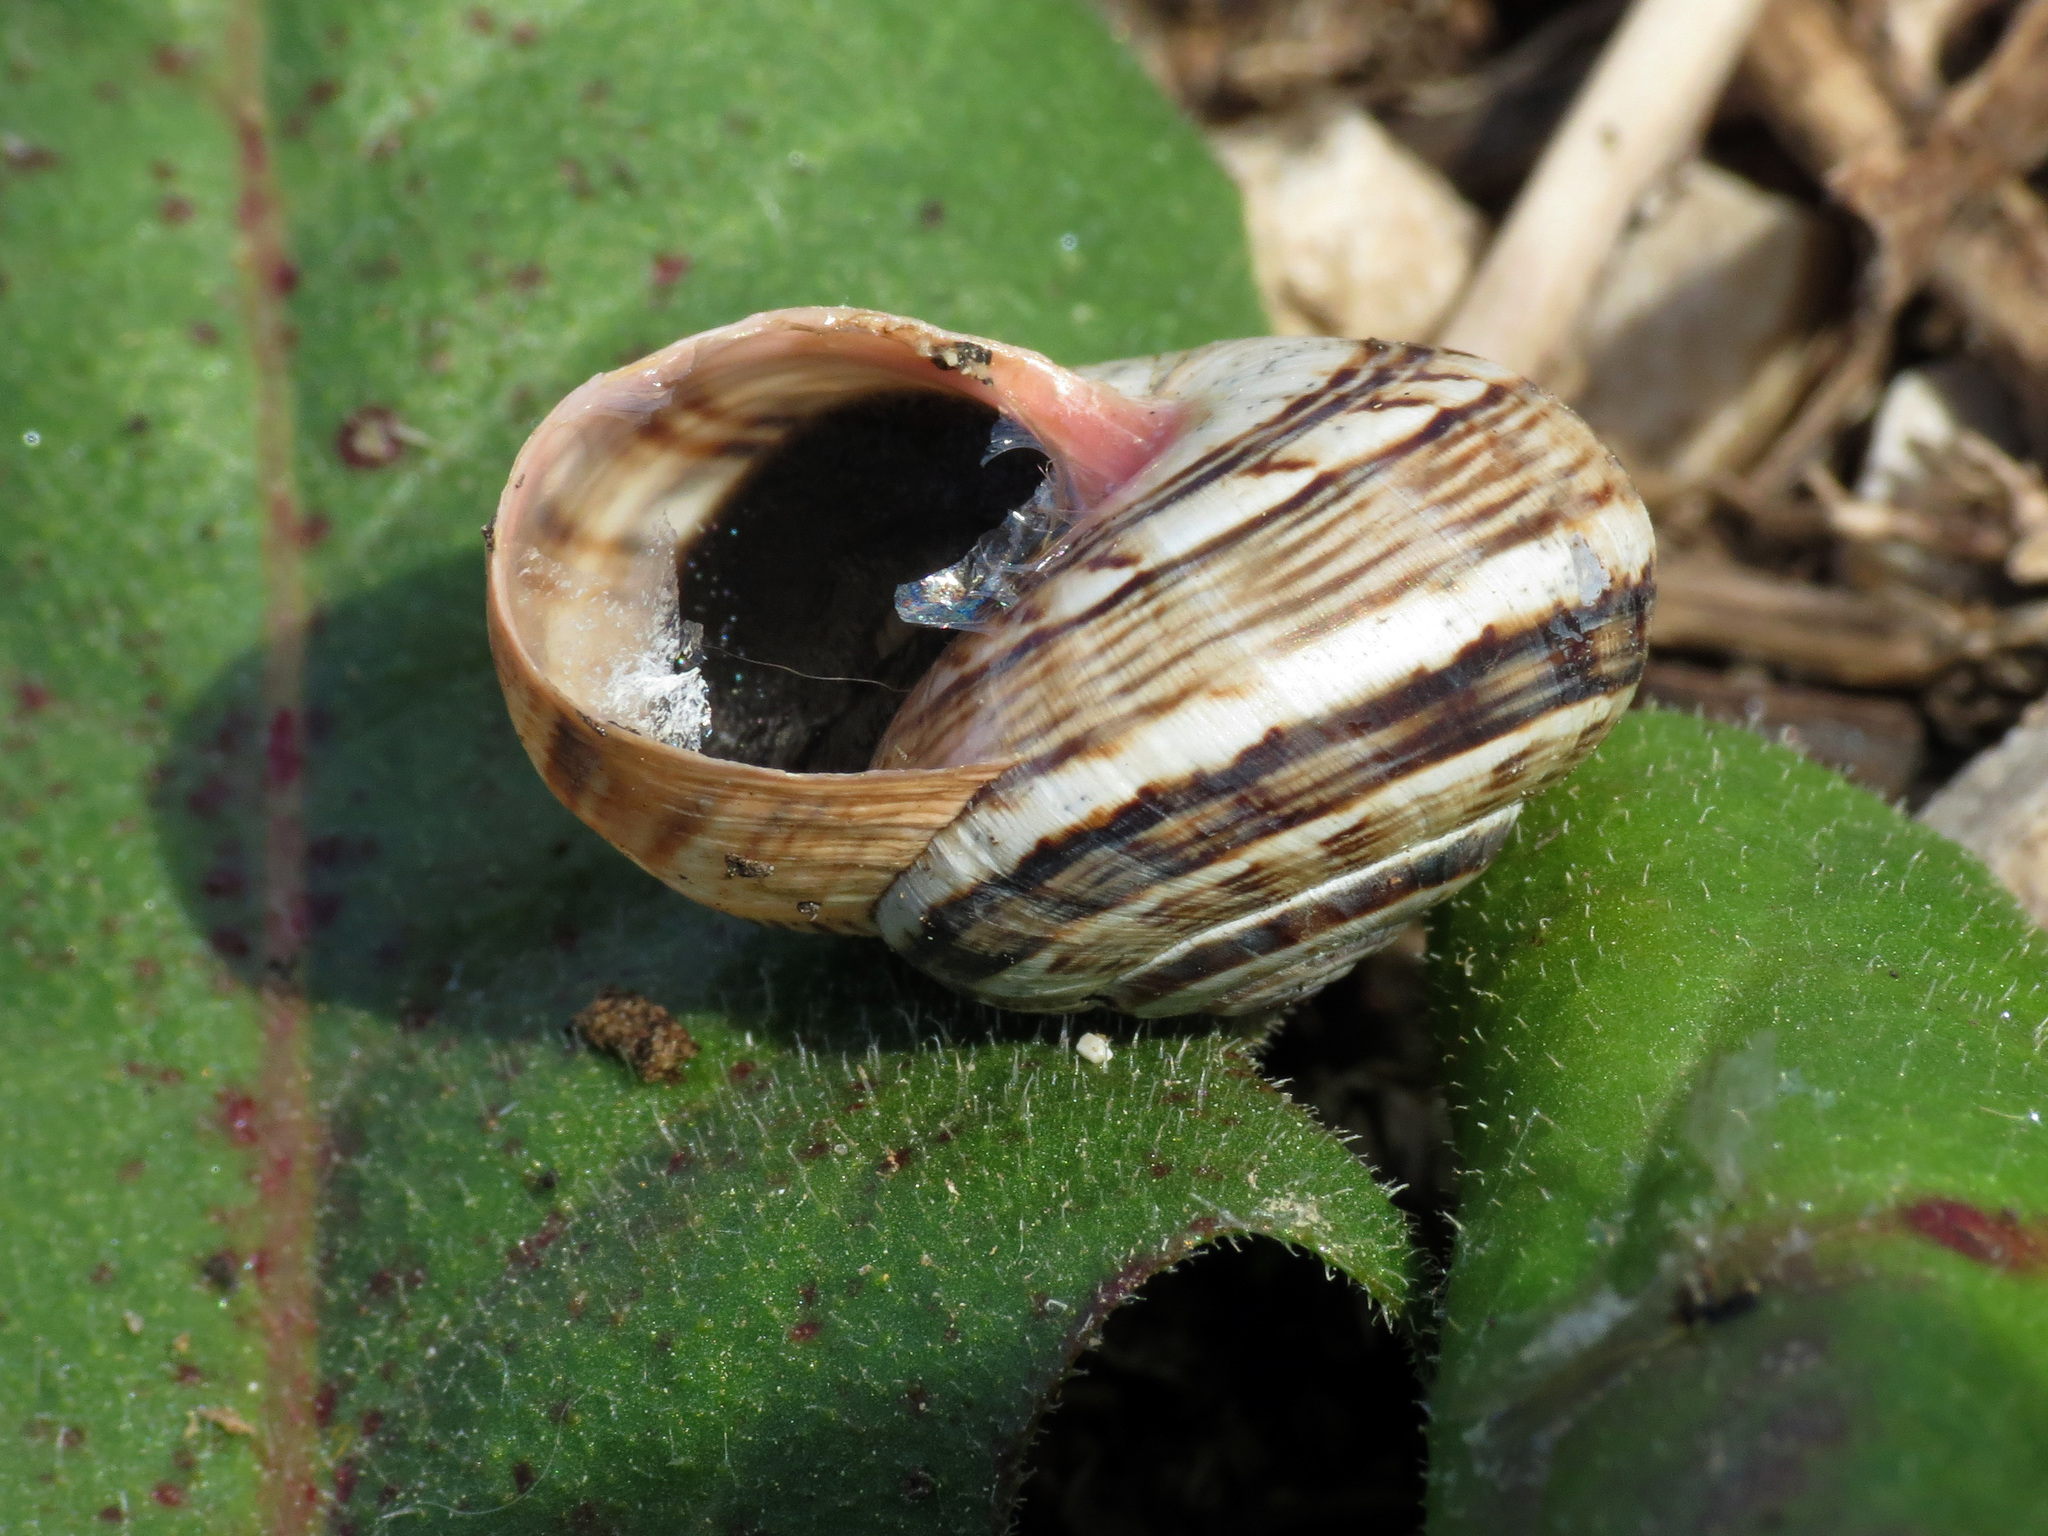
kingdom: Animalia
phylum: Mollusca
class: Gastropoda
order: Stylommatophora
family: Helicidae
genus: Theba
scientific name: Theba pisana
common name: White snail
